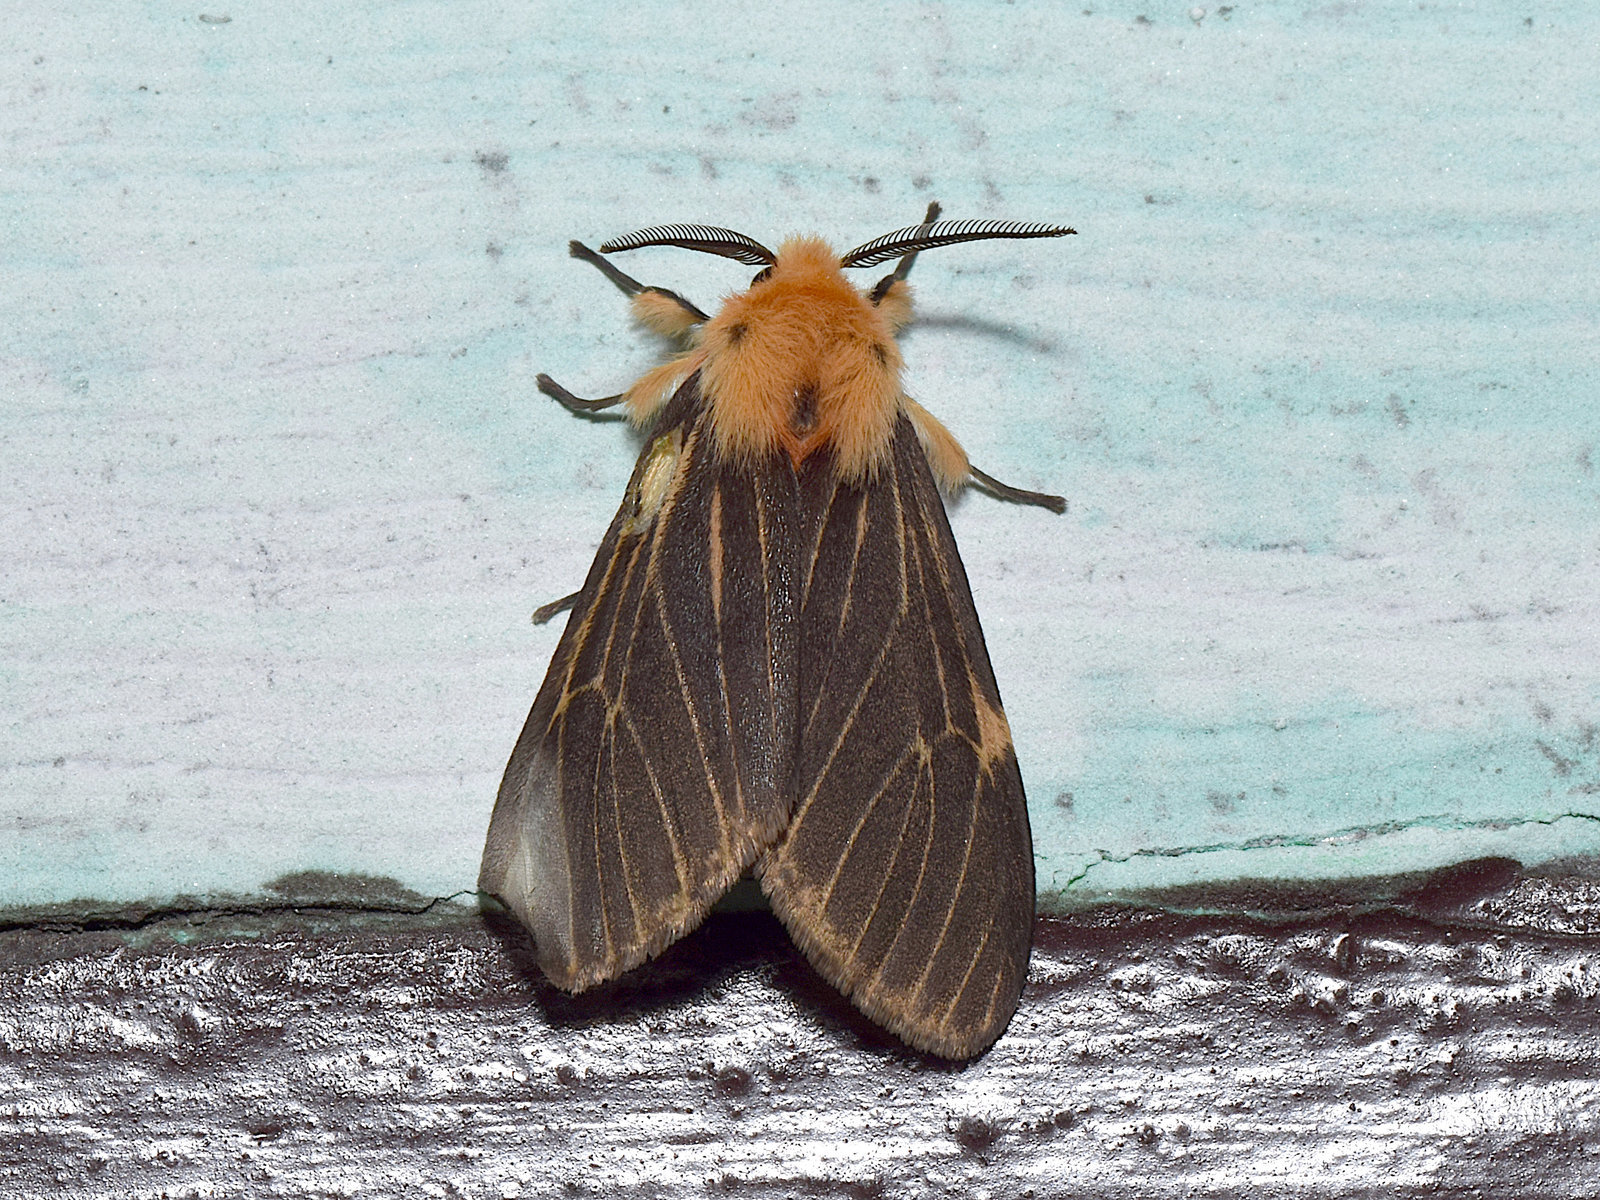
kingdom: Animalia
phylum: Arthropoda
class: Insecta
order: Lepidoptera
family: Erebidae
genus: Lemyra
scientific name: Lemyra
